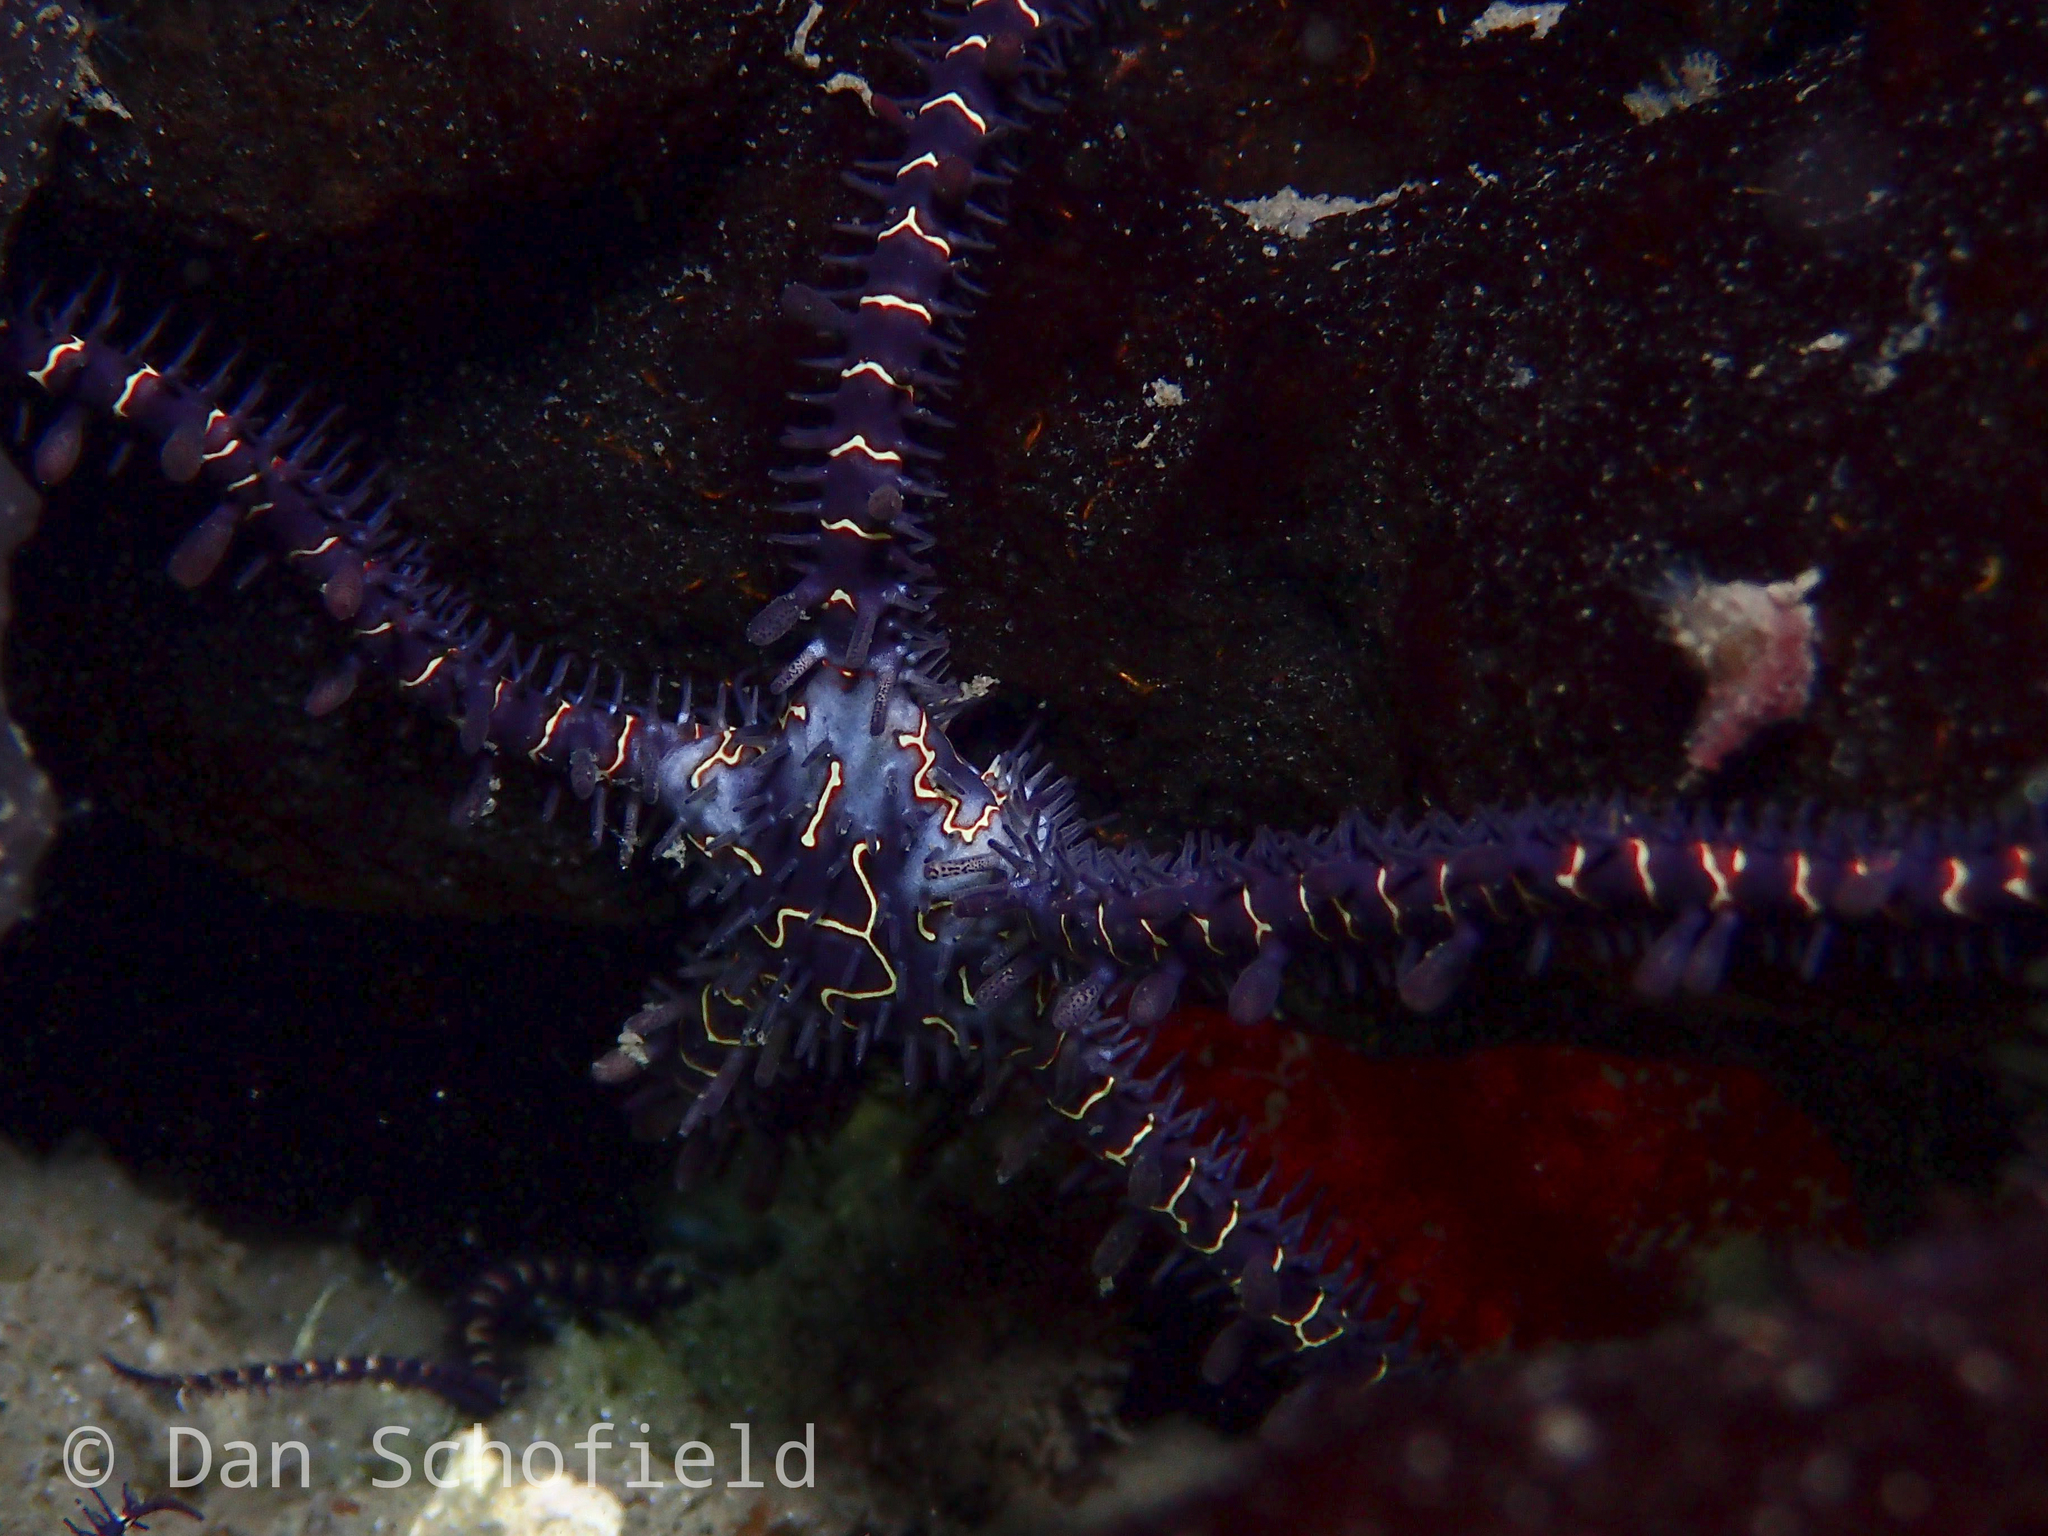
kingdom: Animalia
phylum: Echinodermata
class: Ophiuroidea
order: Ophiacanthida
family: Ophiocomidae
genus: Ophiomastix
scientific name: Ophiomastix flaccida
